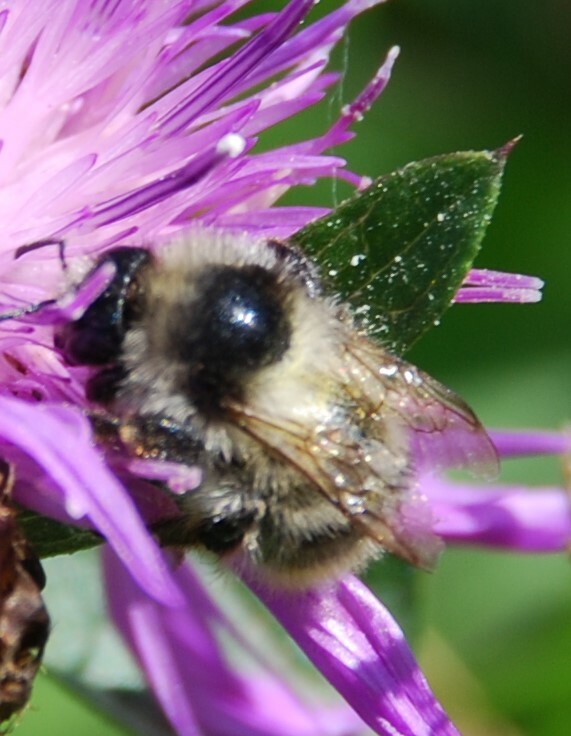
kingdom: Animalia
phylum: Arthropoda
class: Insecta
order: Hymenoptera
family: Apidae
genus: Bombus
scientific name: Bombus sylvarum
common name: Shrill carder bee
